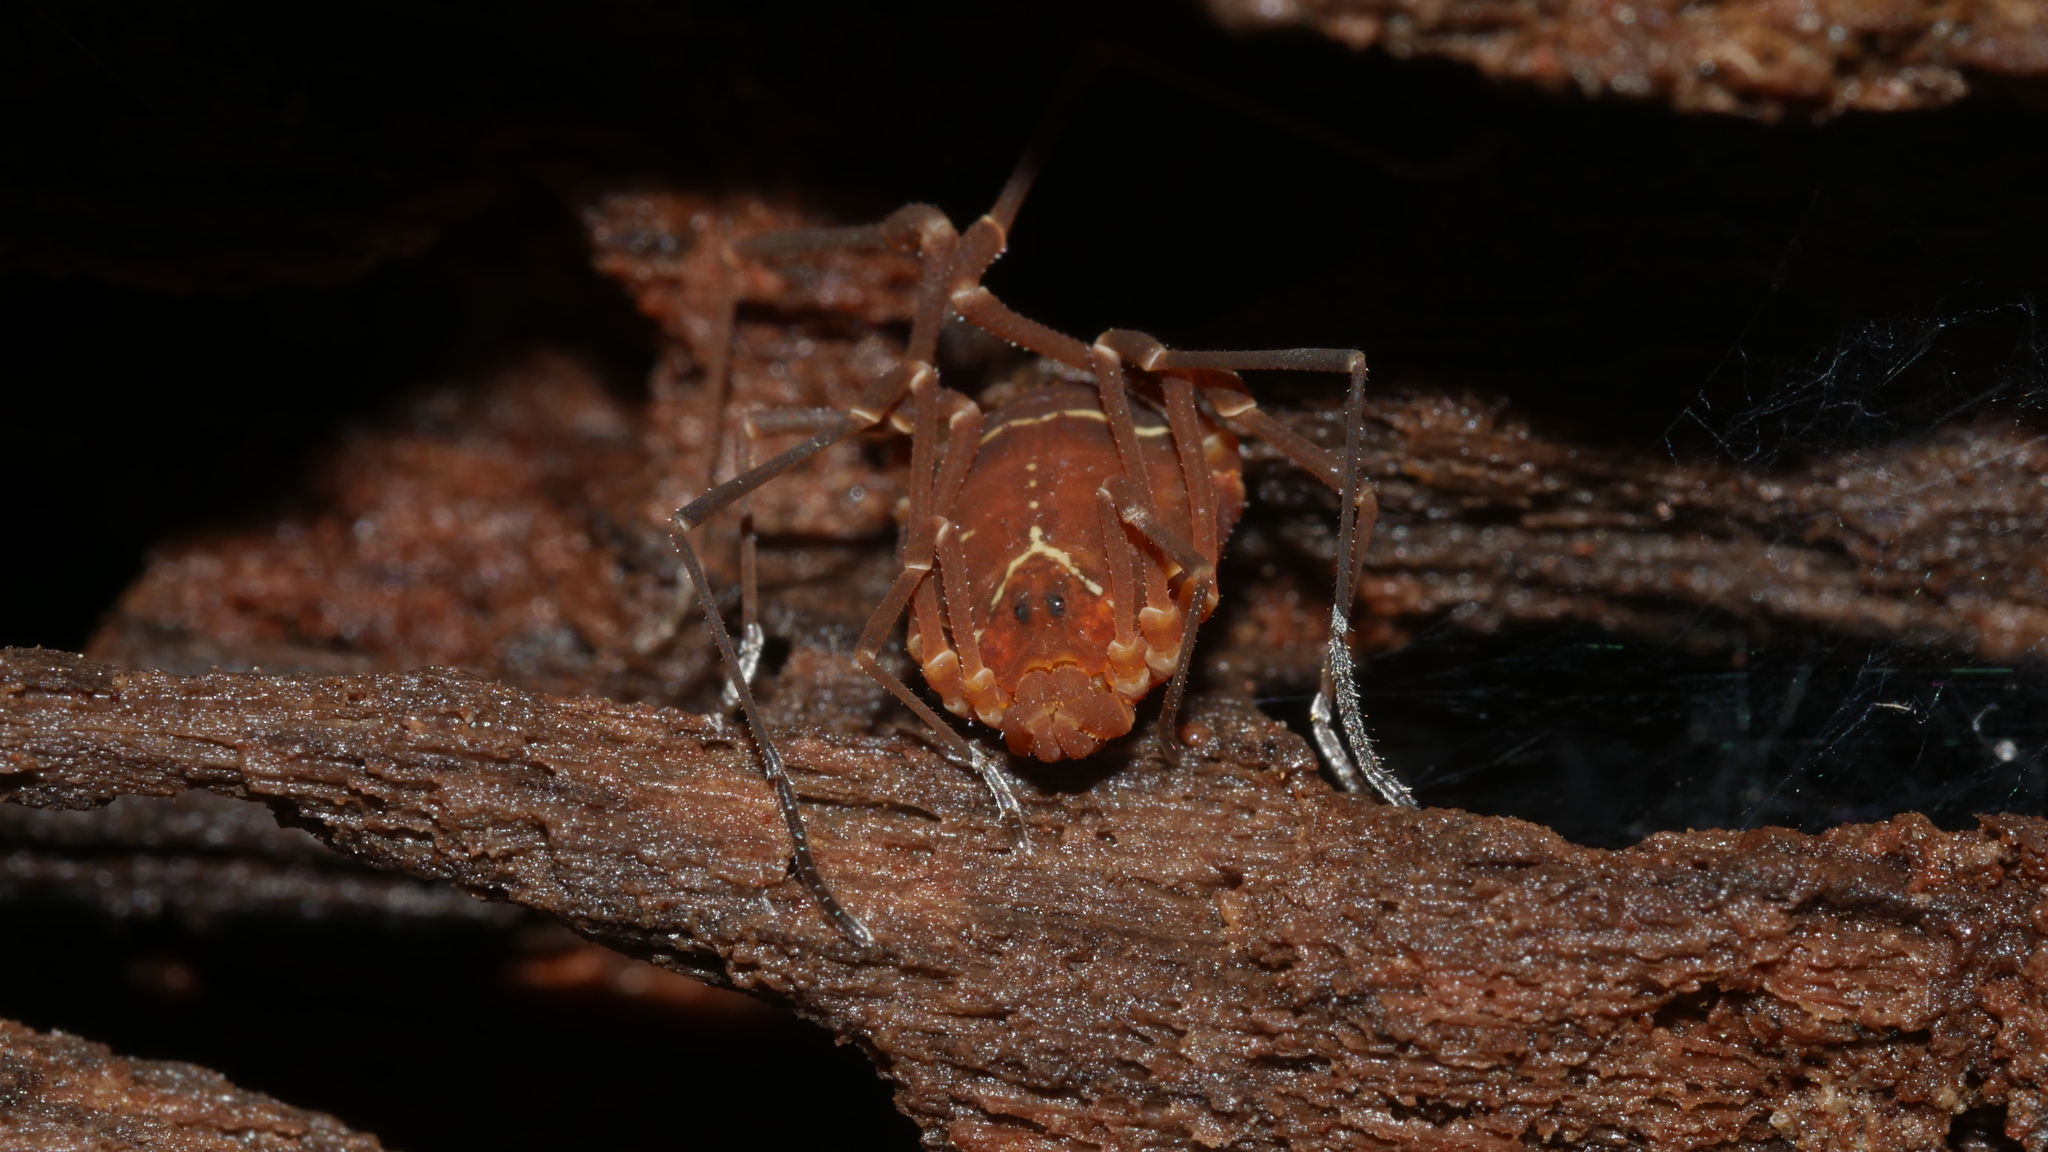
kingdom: Animalia
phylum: Arthropoda
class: Arachnida
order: Opiliones
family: Cosmetidae
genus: Libitioides
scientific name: Libitioides sayi
